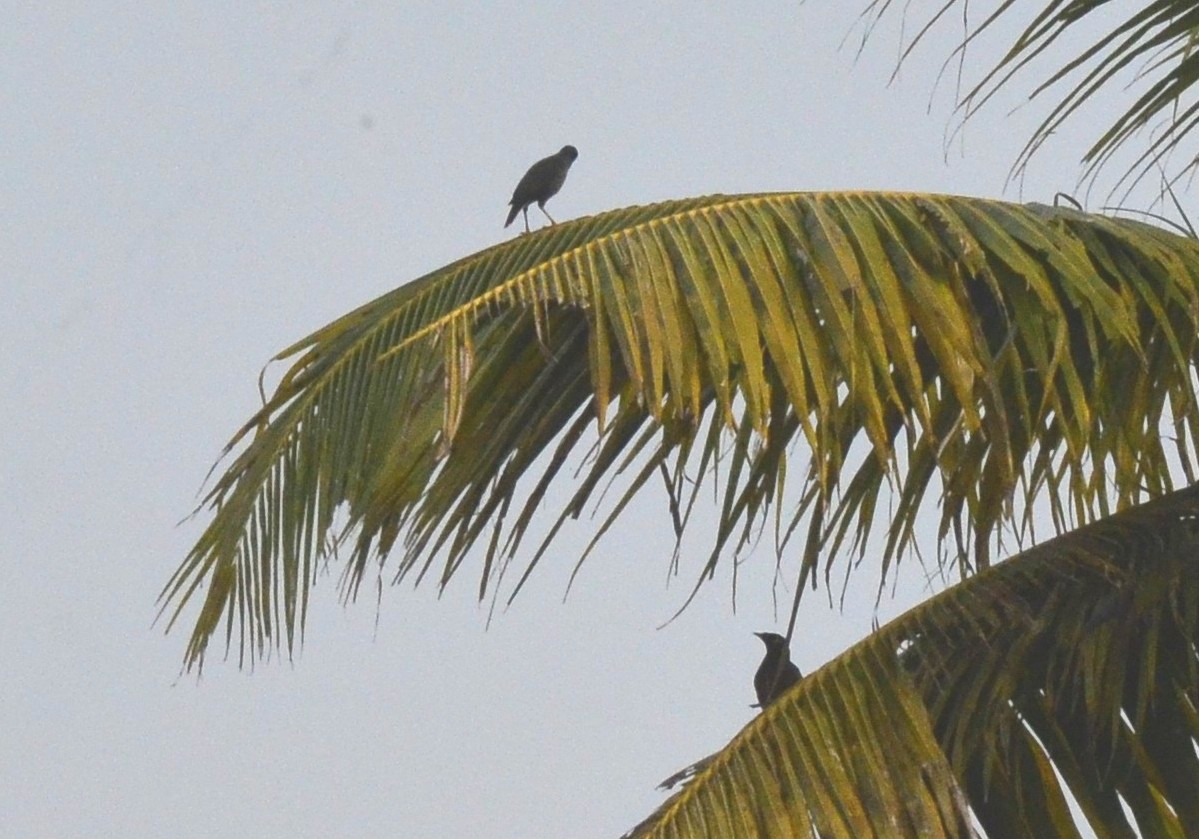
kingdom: Animalia
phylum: Chordata
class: Aves
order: Passeriformes
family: Sturnidae
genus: Acridotheres
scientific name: Acridotheres fuscus
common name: Jungle myna
